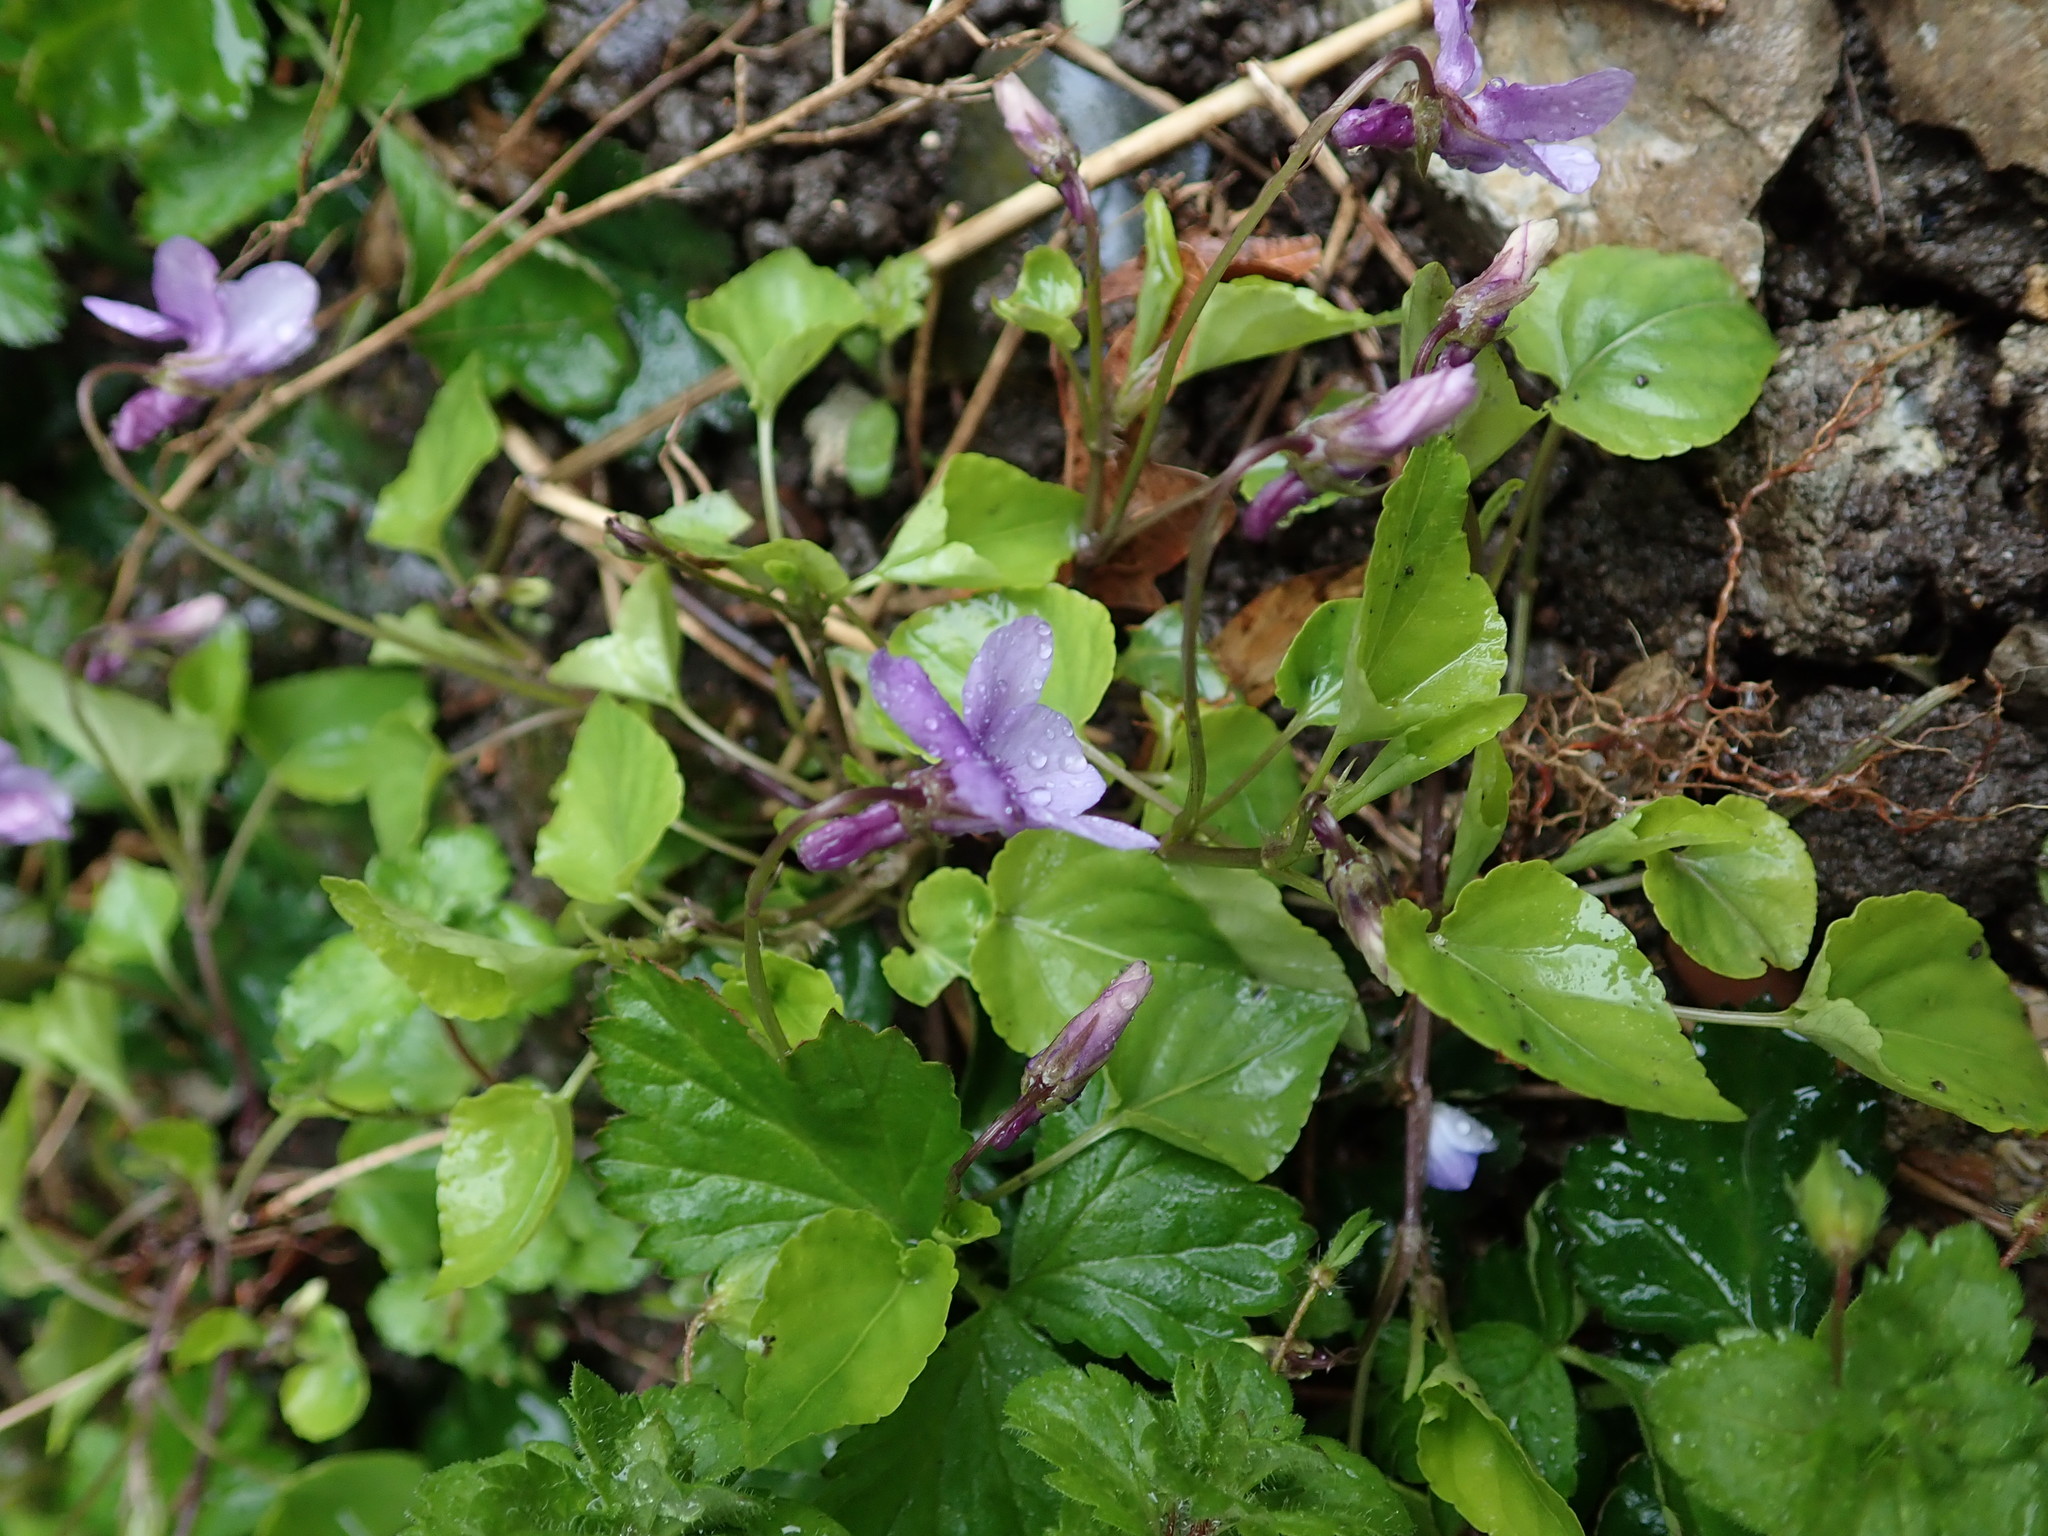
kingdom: Plantae
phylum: Tracheophyta
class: Magnoliopsida
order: Malpighiales
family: Violaceae
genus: Viola
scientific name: Viola reichenbachiana
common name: Early dog-violet
